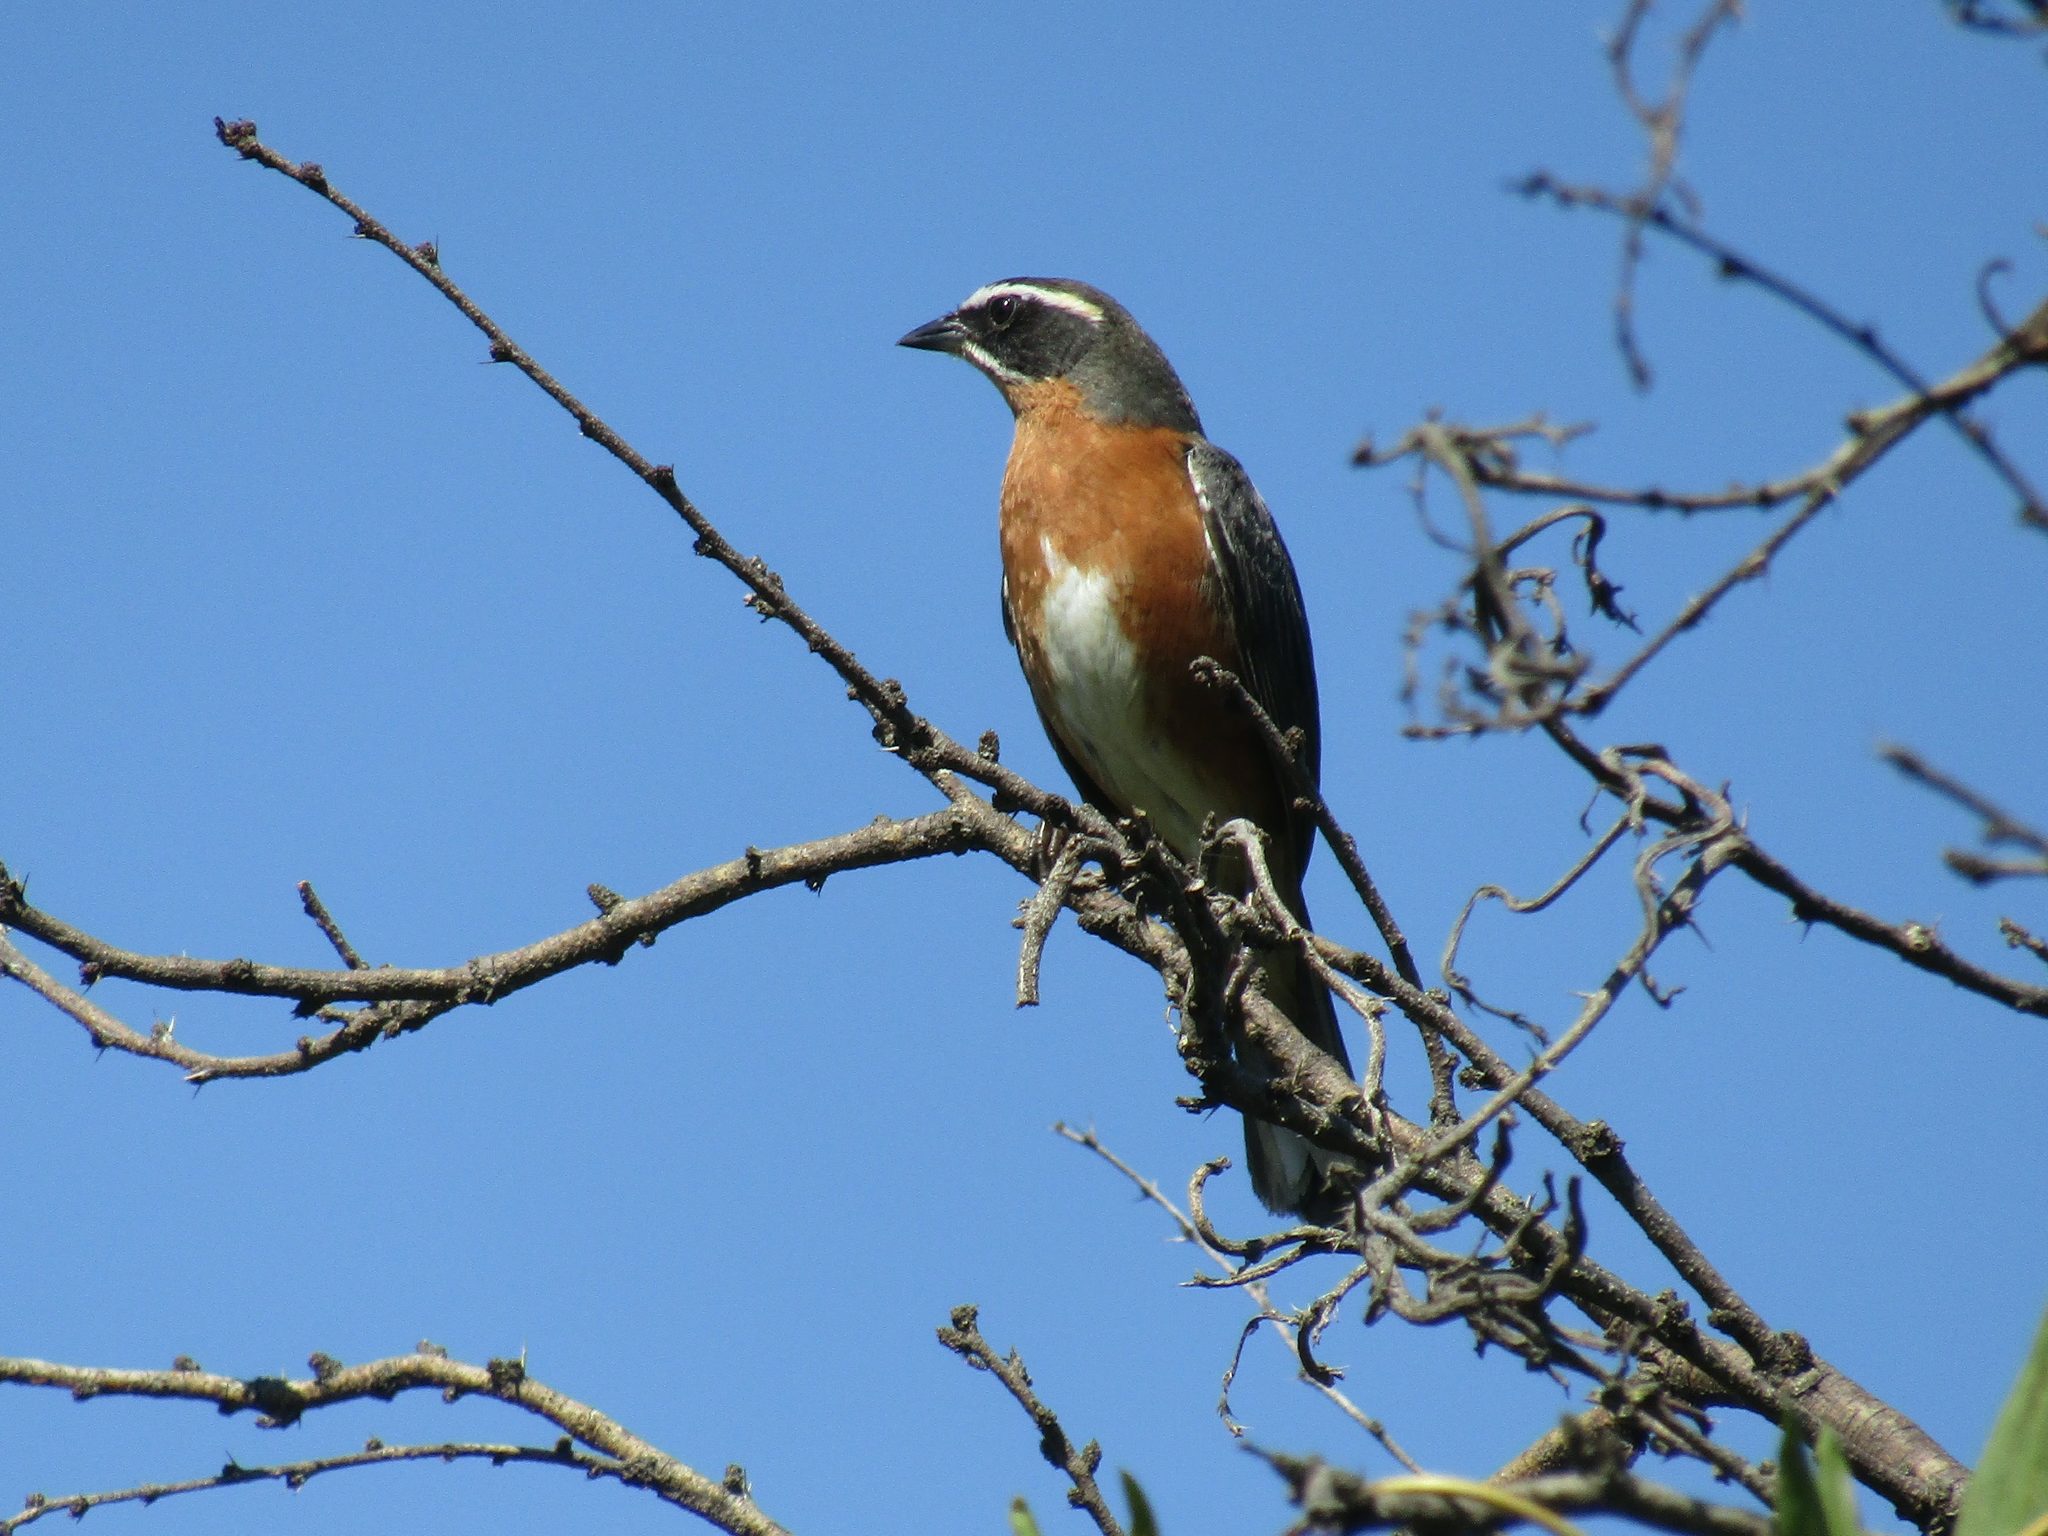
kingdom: Animalia
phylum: Chordata
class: Aves
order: Passeriformes
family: Thraupidae
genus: Poospiza
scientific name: Poospiza nigrorufa
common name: Black-and-rufous warbling finch
